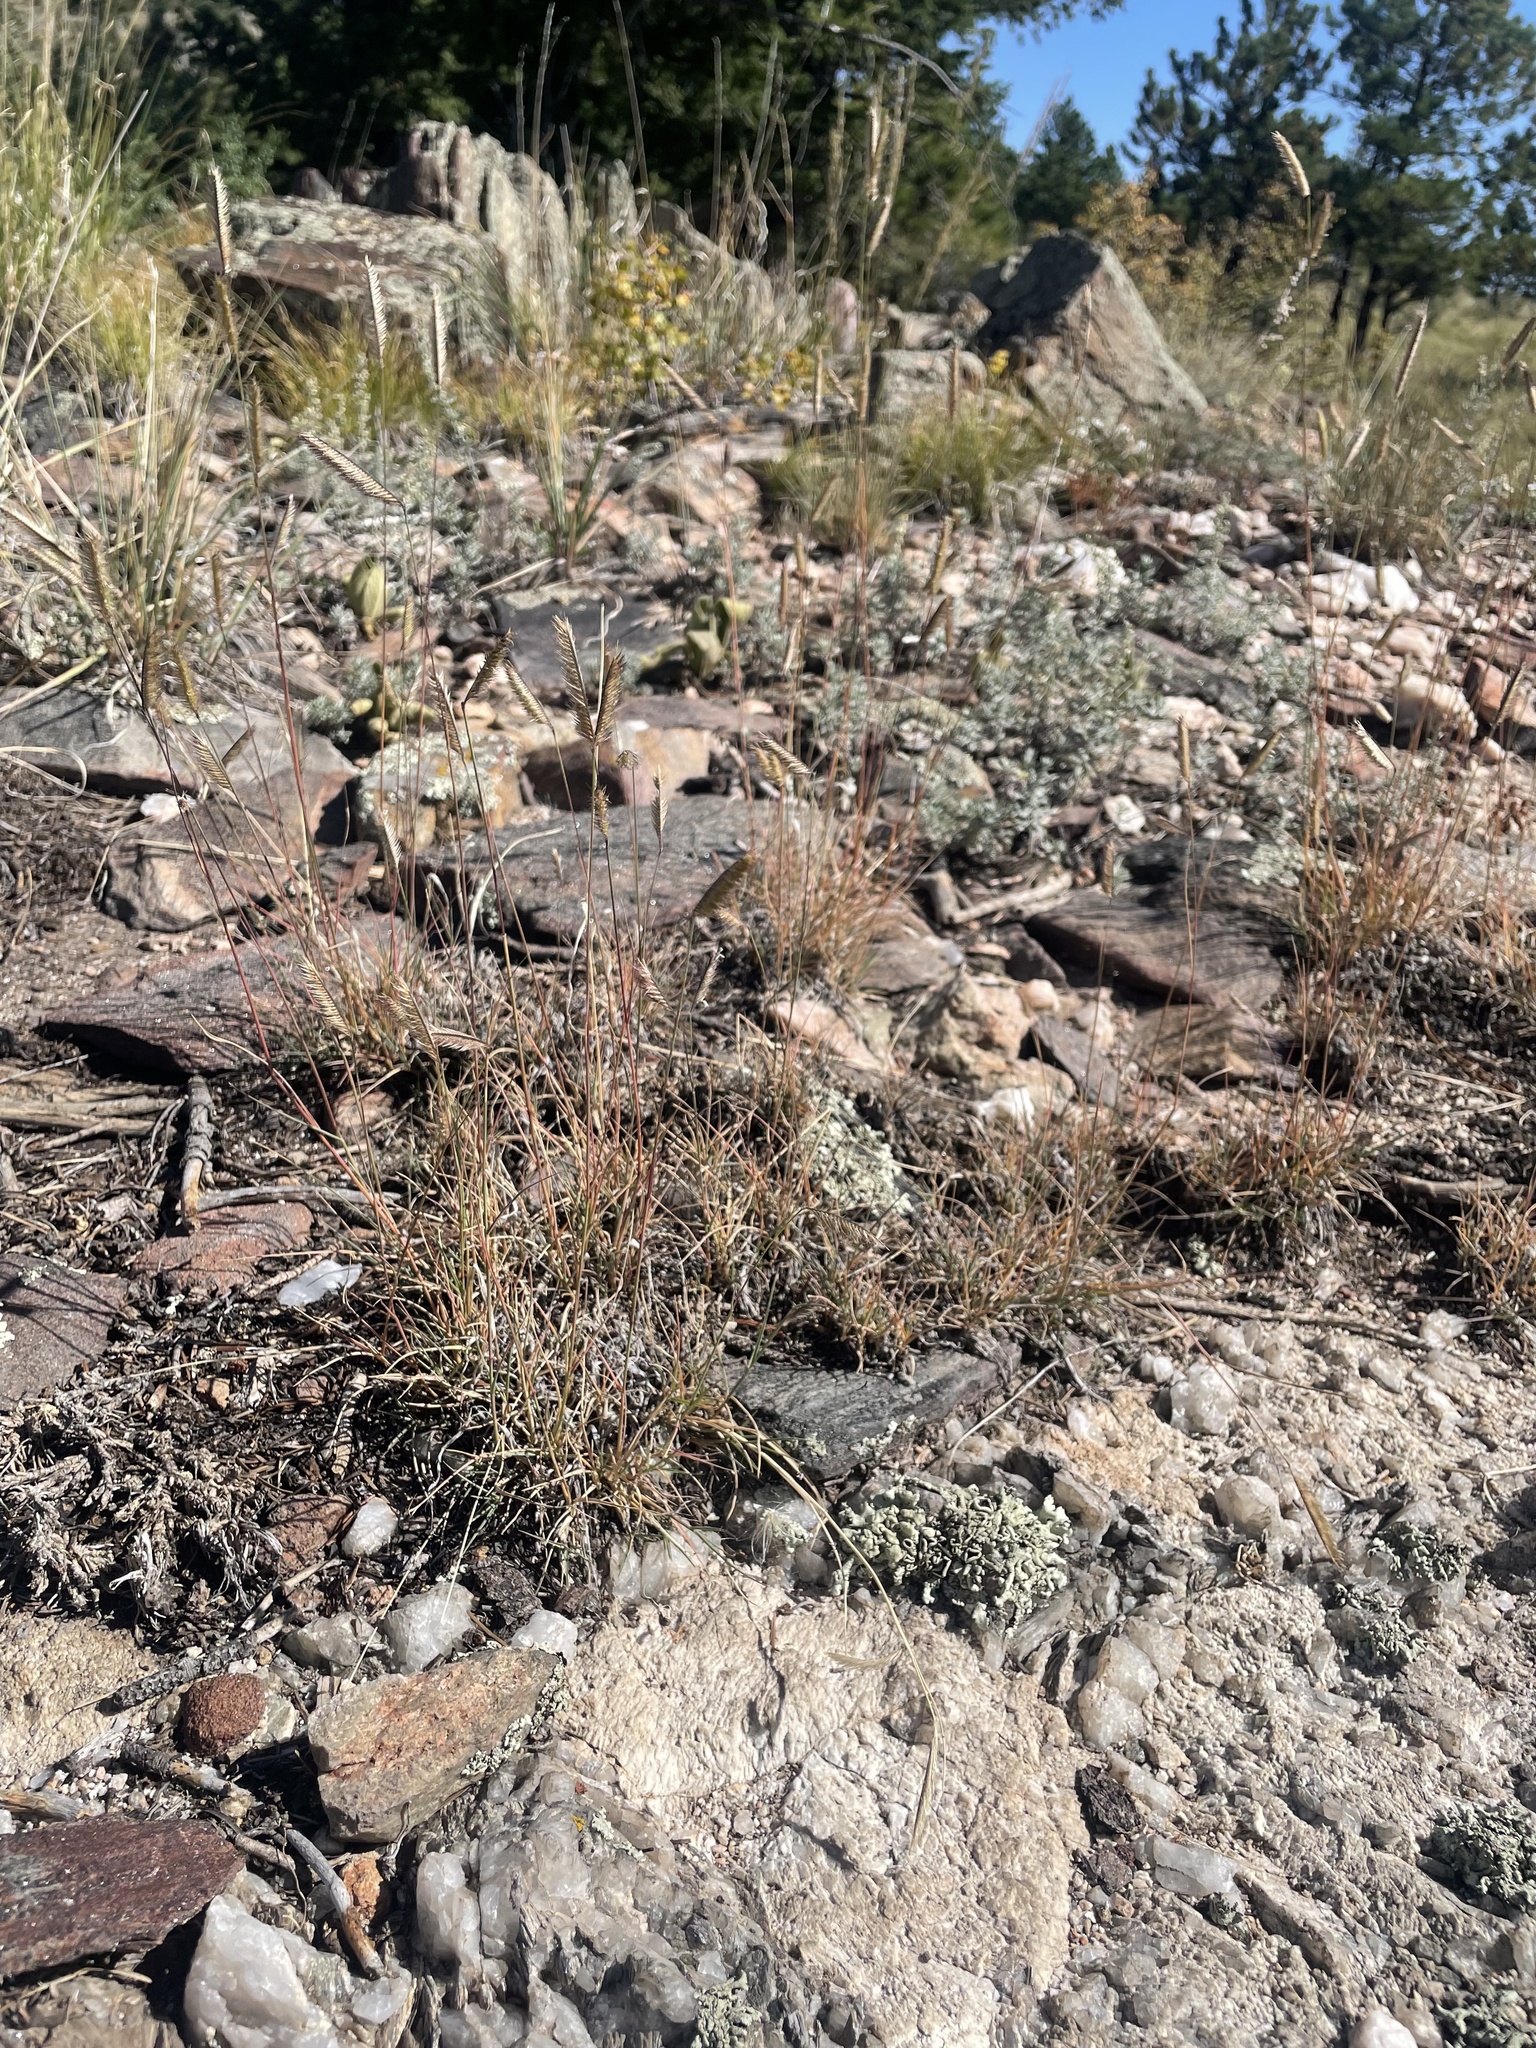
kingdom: Plantae
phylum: Tracheophyta
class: Liliopsida
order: Poales
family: Poaceae
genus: Bouteloua
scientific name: Bouteloua gracilis
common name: Blue grama
